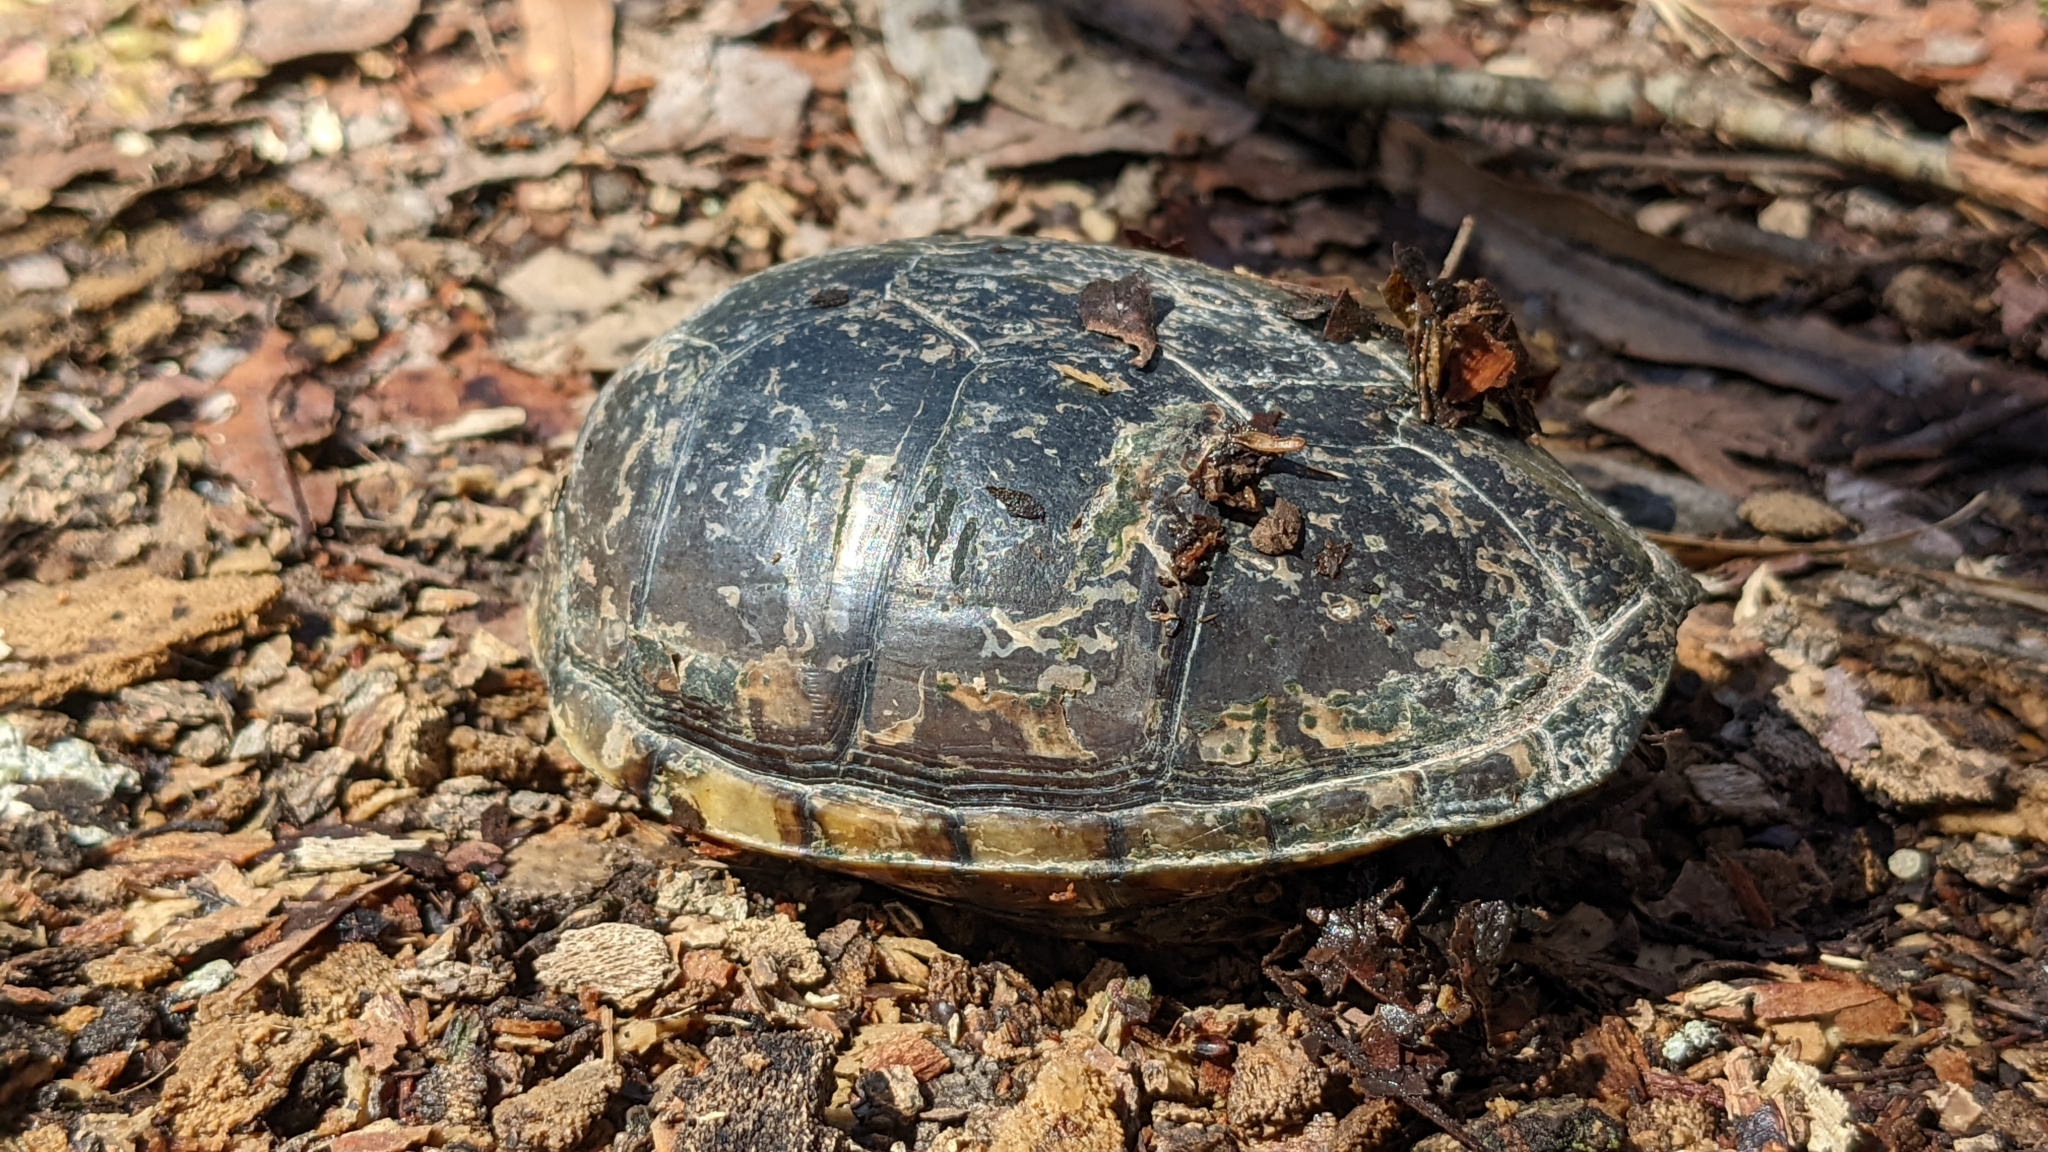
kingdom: Animalia
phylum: Chordata
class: Testudines
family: Kinosternidae
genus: Kinosternon
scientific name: Kinosternon subrubrum
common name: Eastern mud turtle
